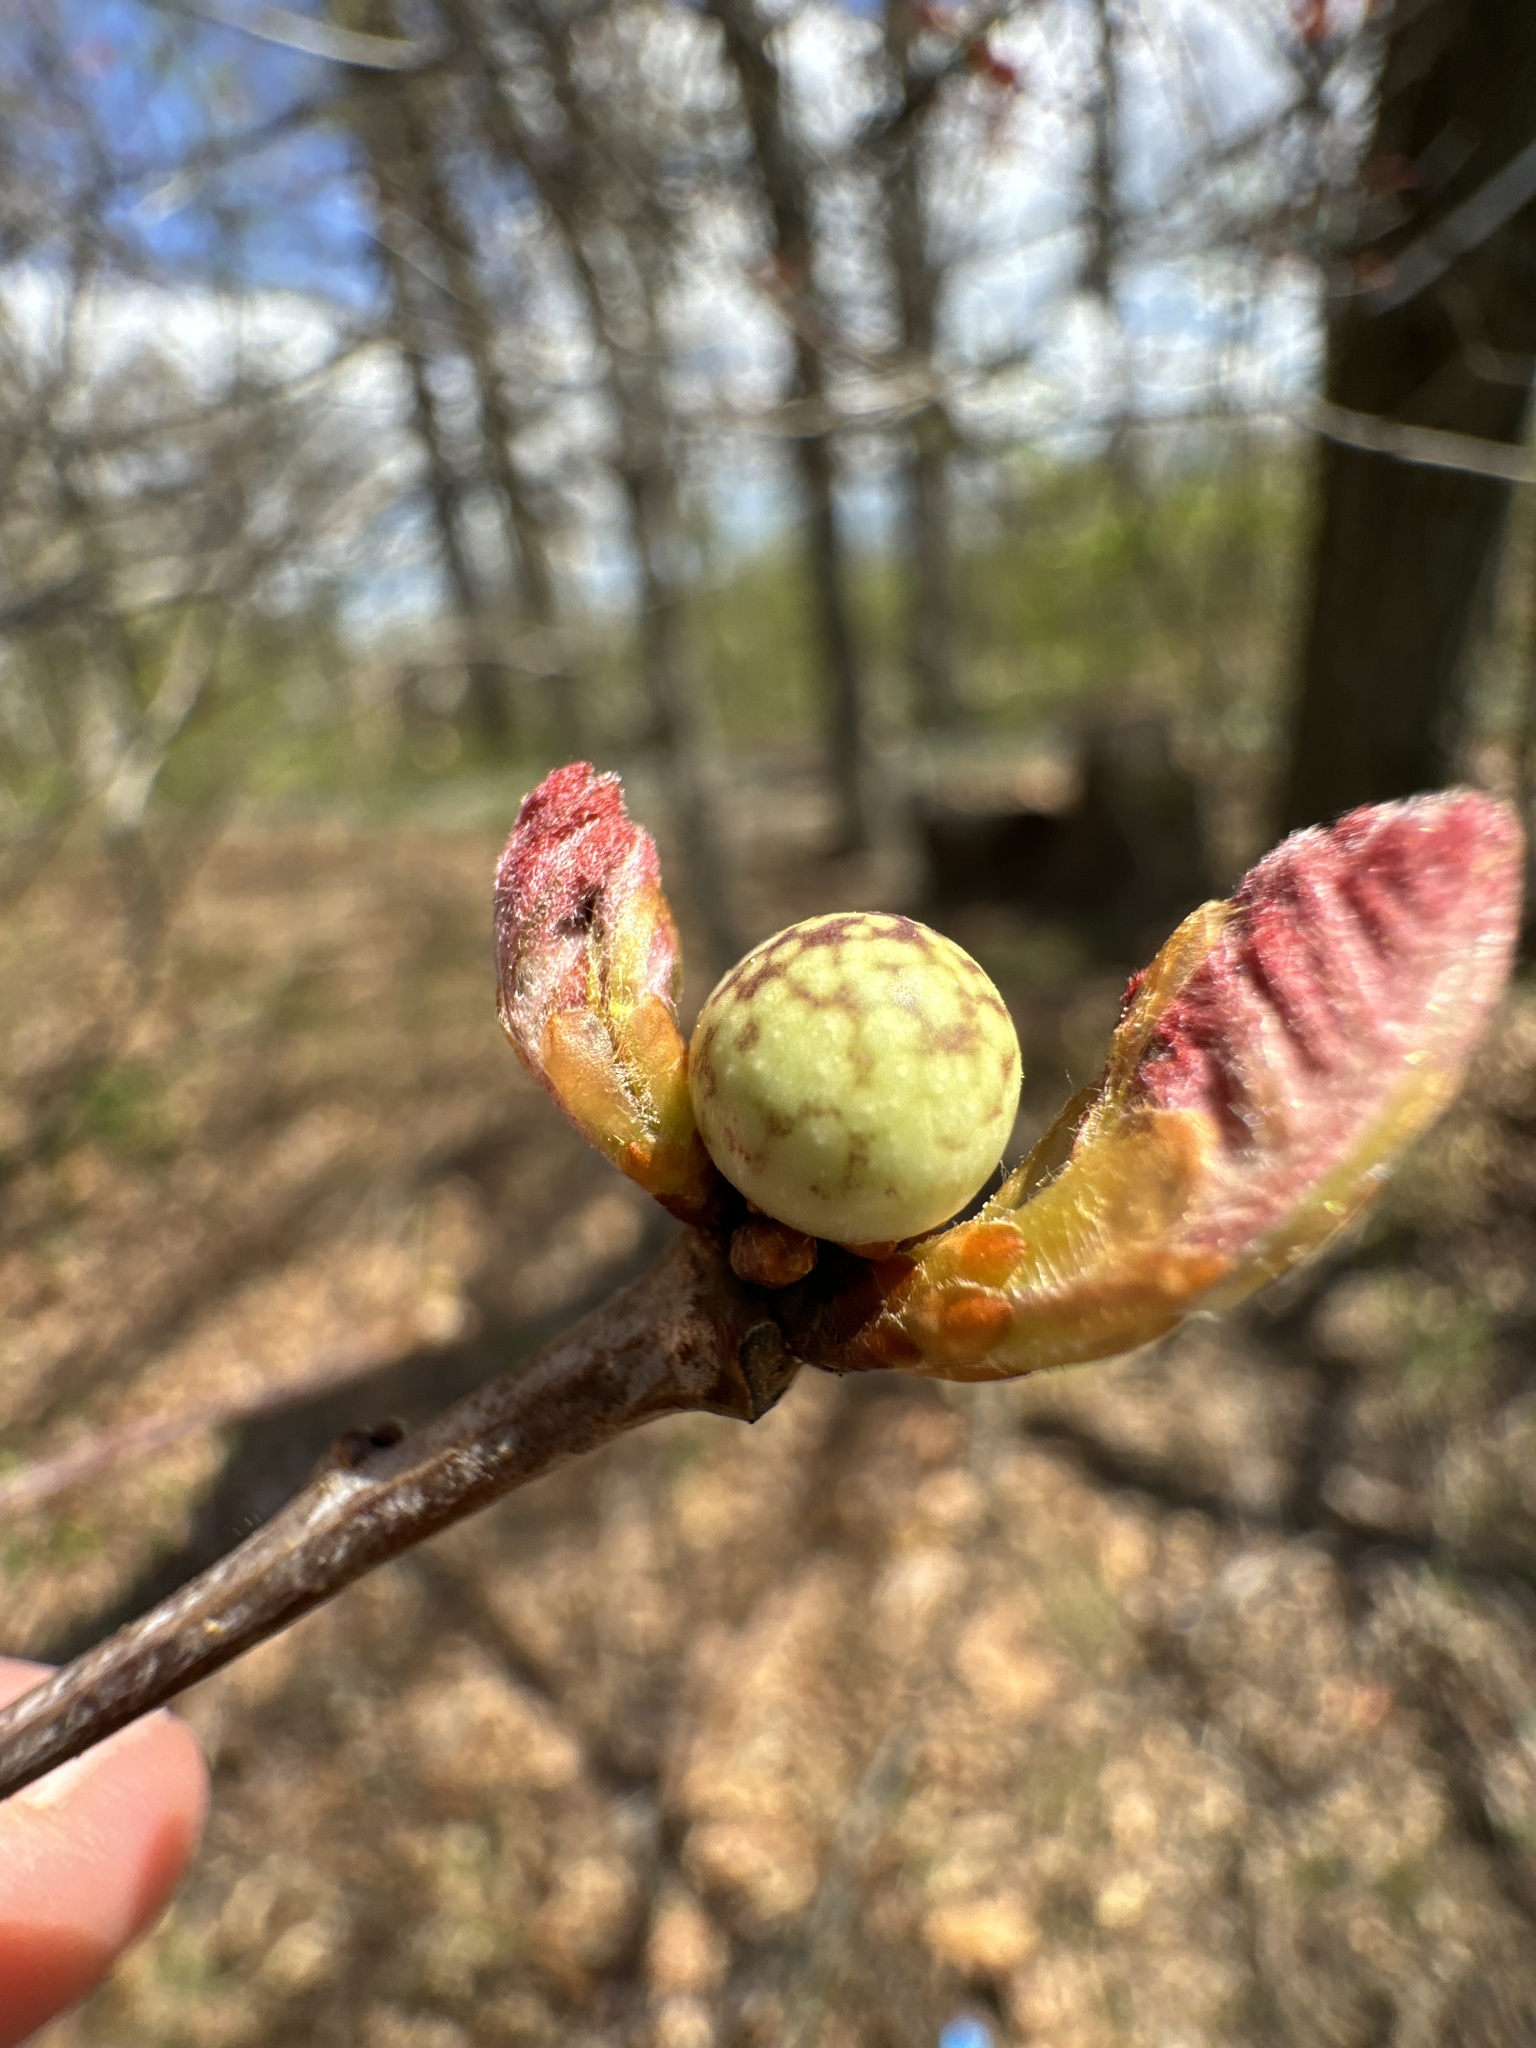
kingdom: Animalia
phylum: Arthropoda
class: Insecta
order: Hymenoptera
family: Cynipidae
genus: Andricus
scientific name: Andricus
